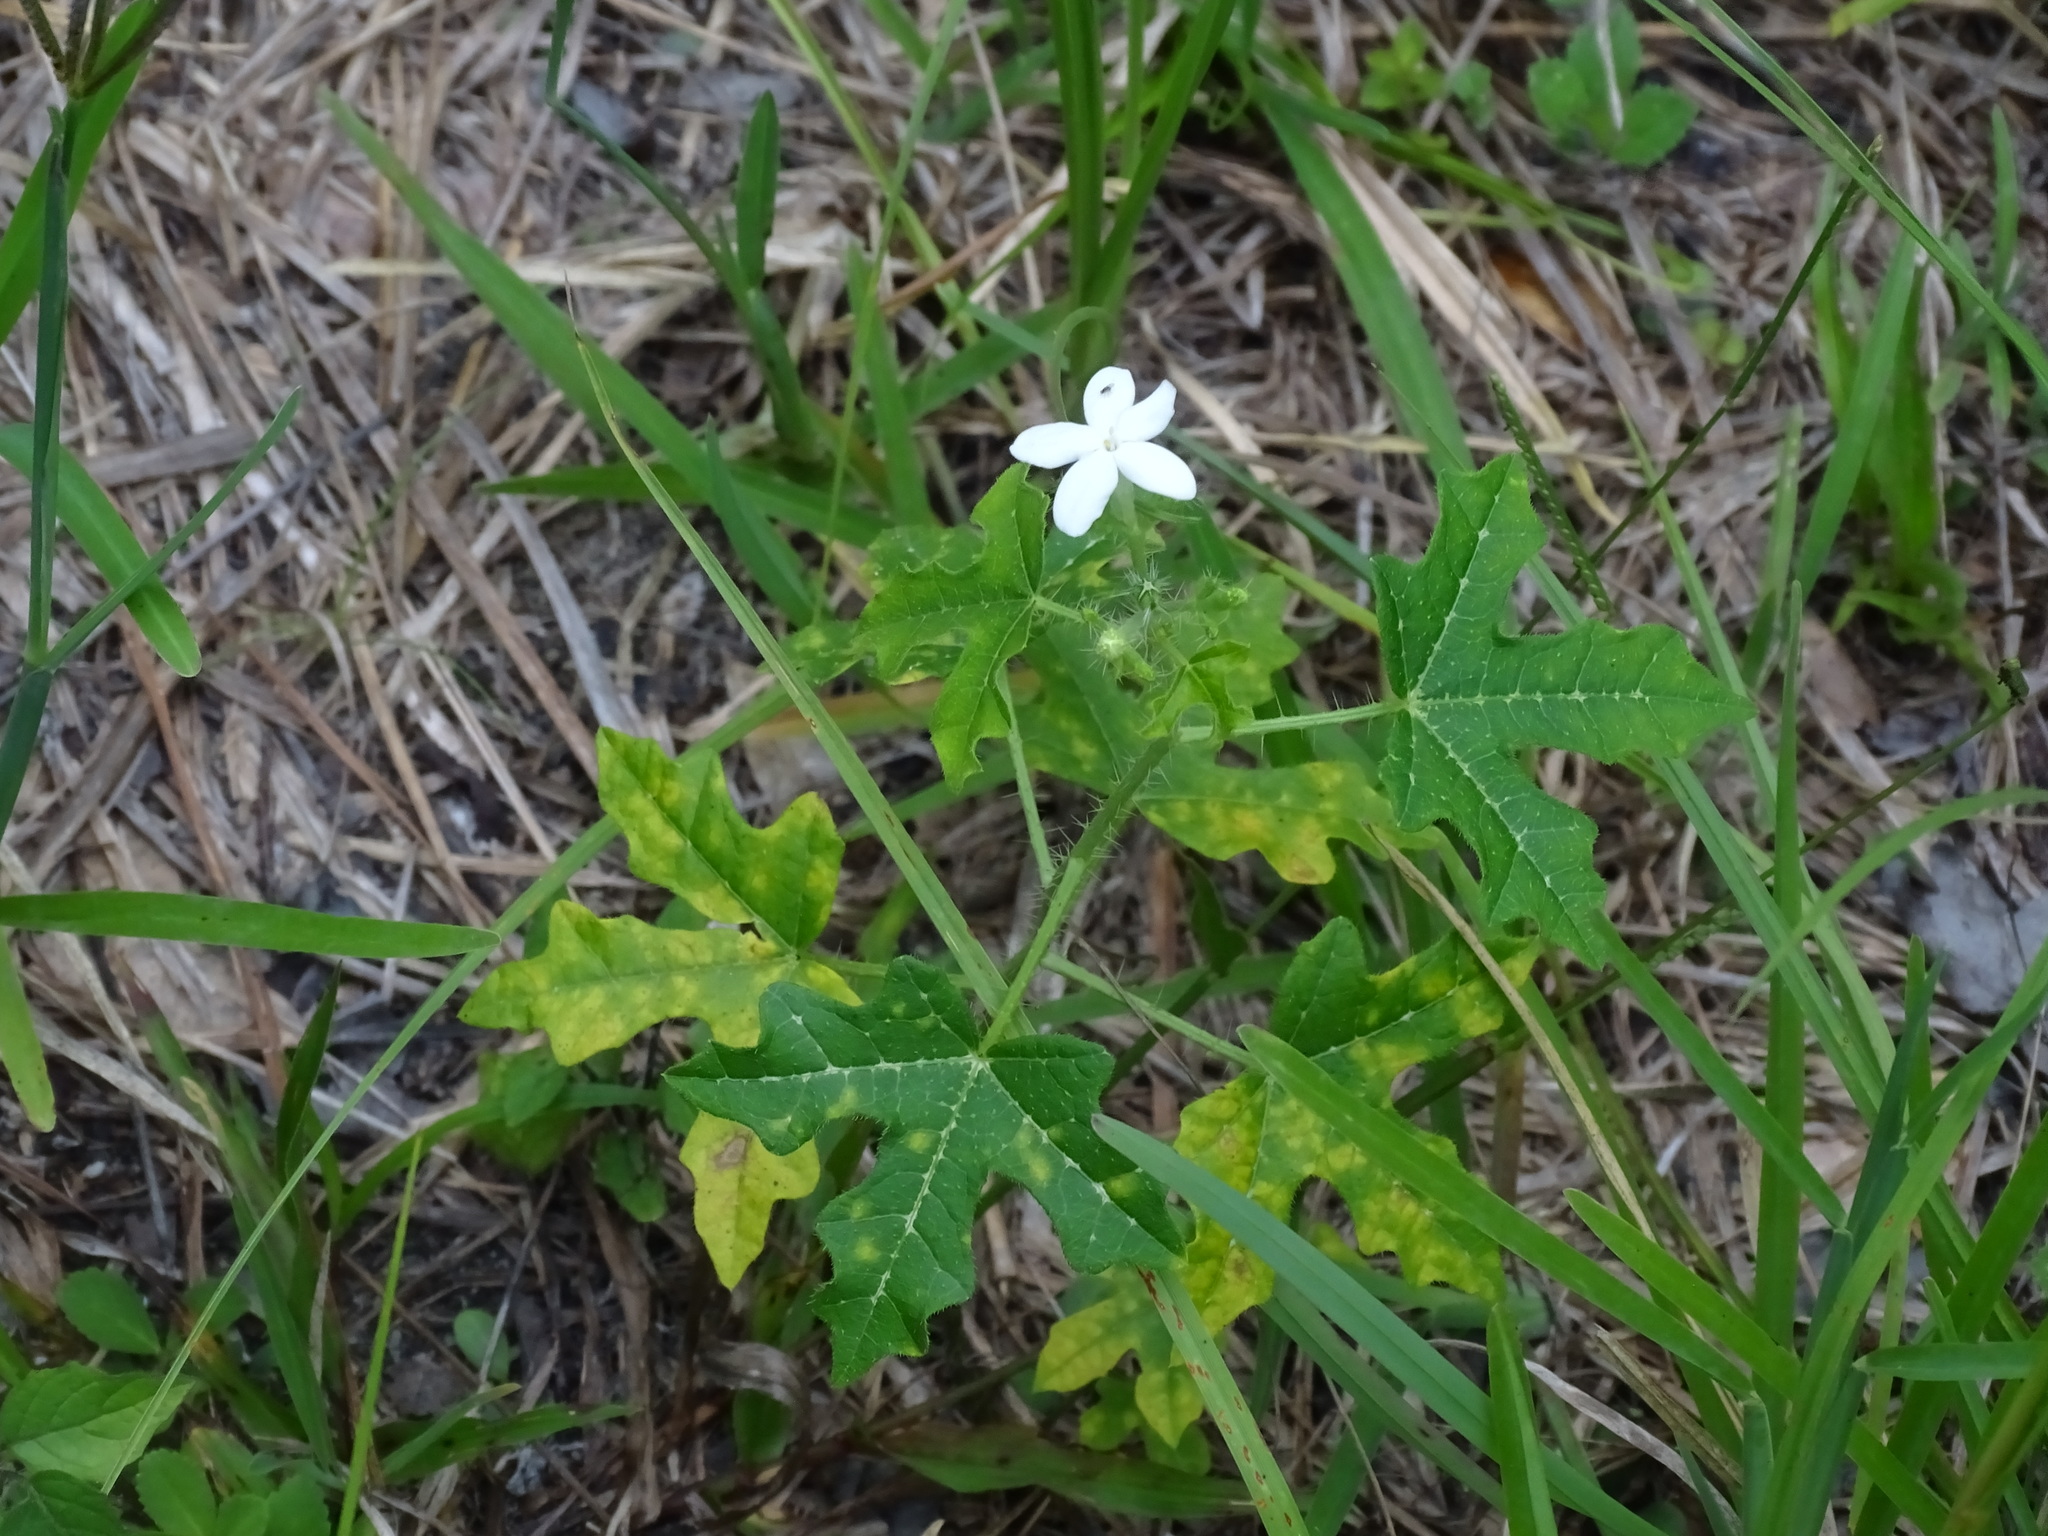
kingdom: Plantae
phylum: Tracheophyta
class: Magnoliopsida
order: Malpighiales
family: Euphorbiaceae
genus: Cnidoscolus
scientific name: Cnidoscolus stimulosus
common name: Bull-nettle
